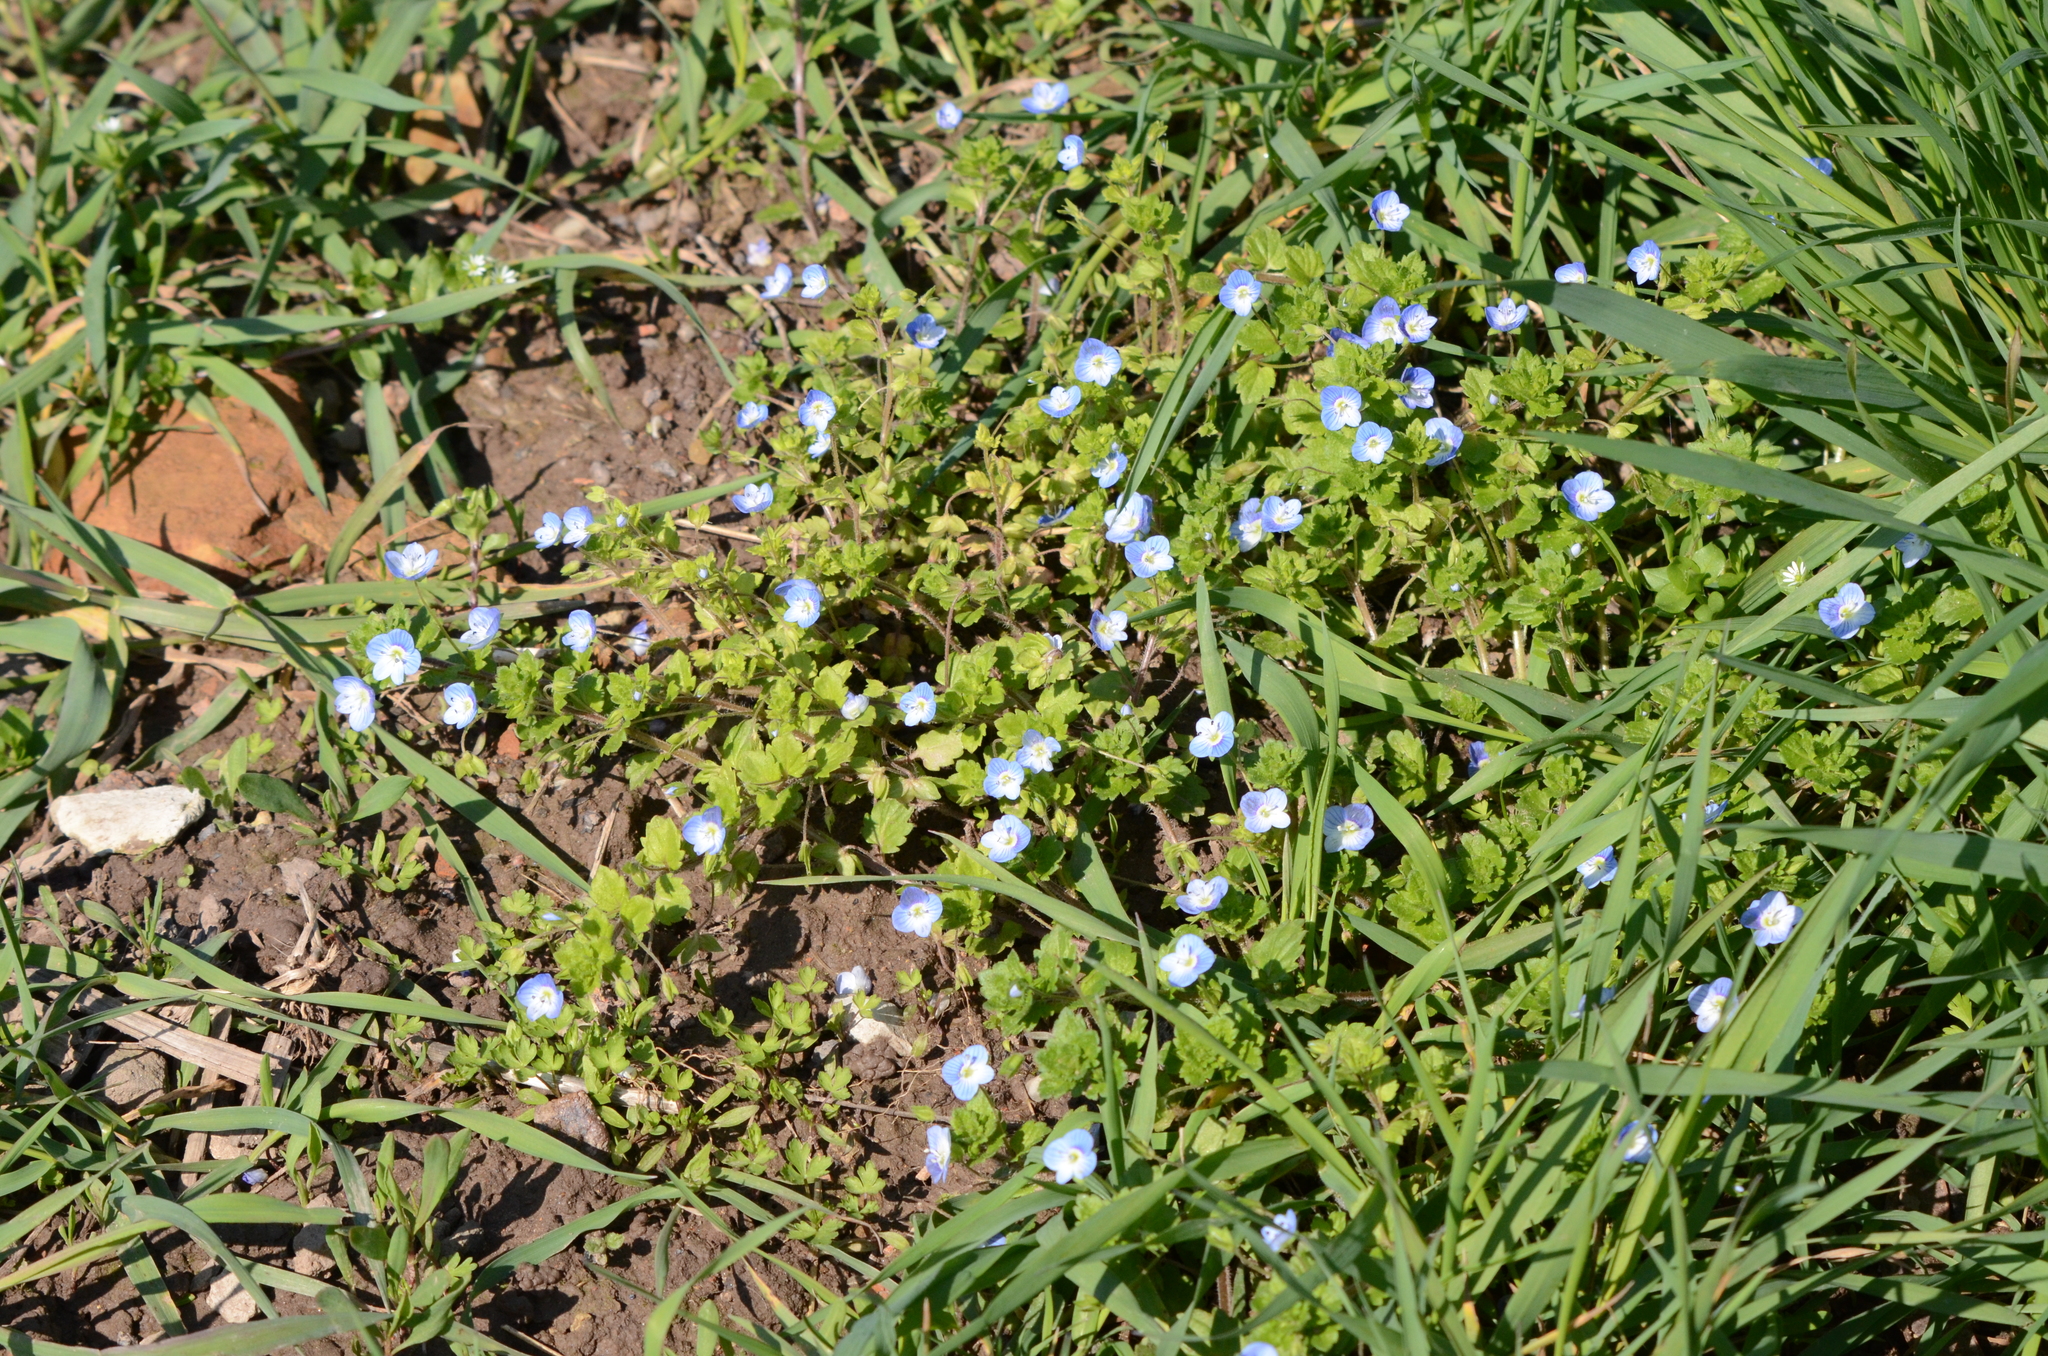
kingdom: Plantae
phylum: Tracheophyta
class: Magnoliopsida
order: Lamiales
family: Plantaginaceae
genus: Veronica
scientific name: Veronica persica
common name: Common field-speedwell
